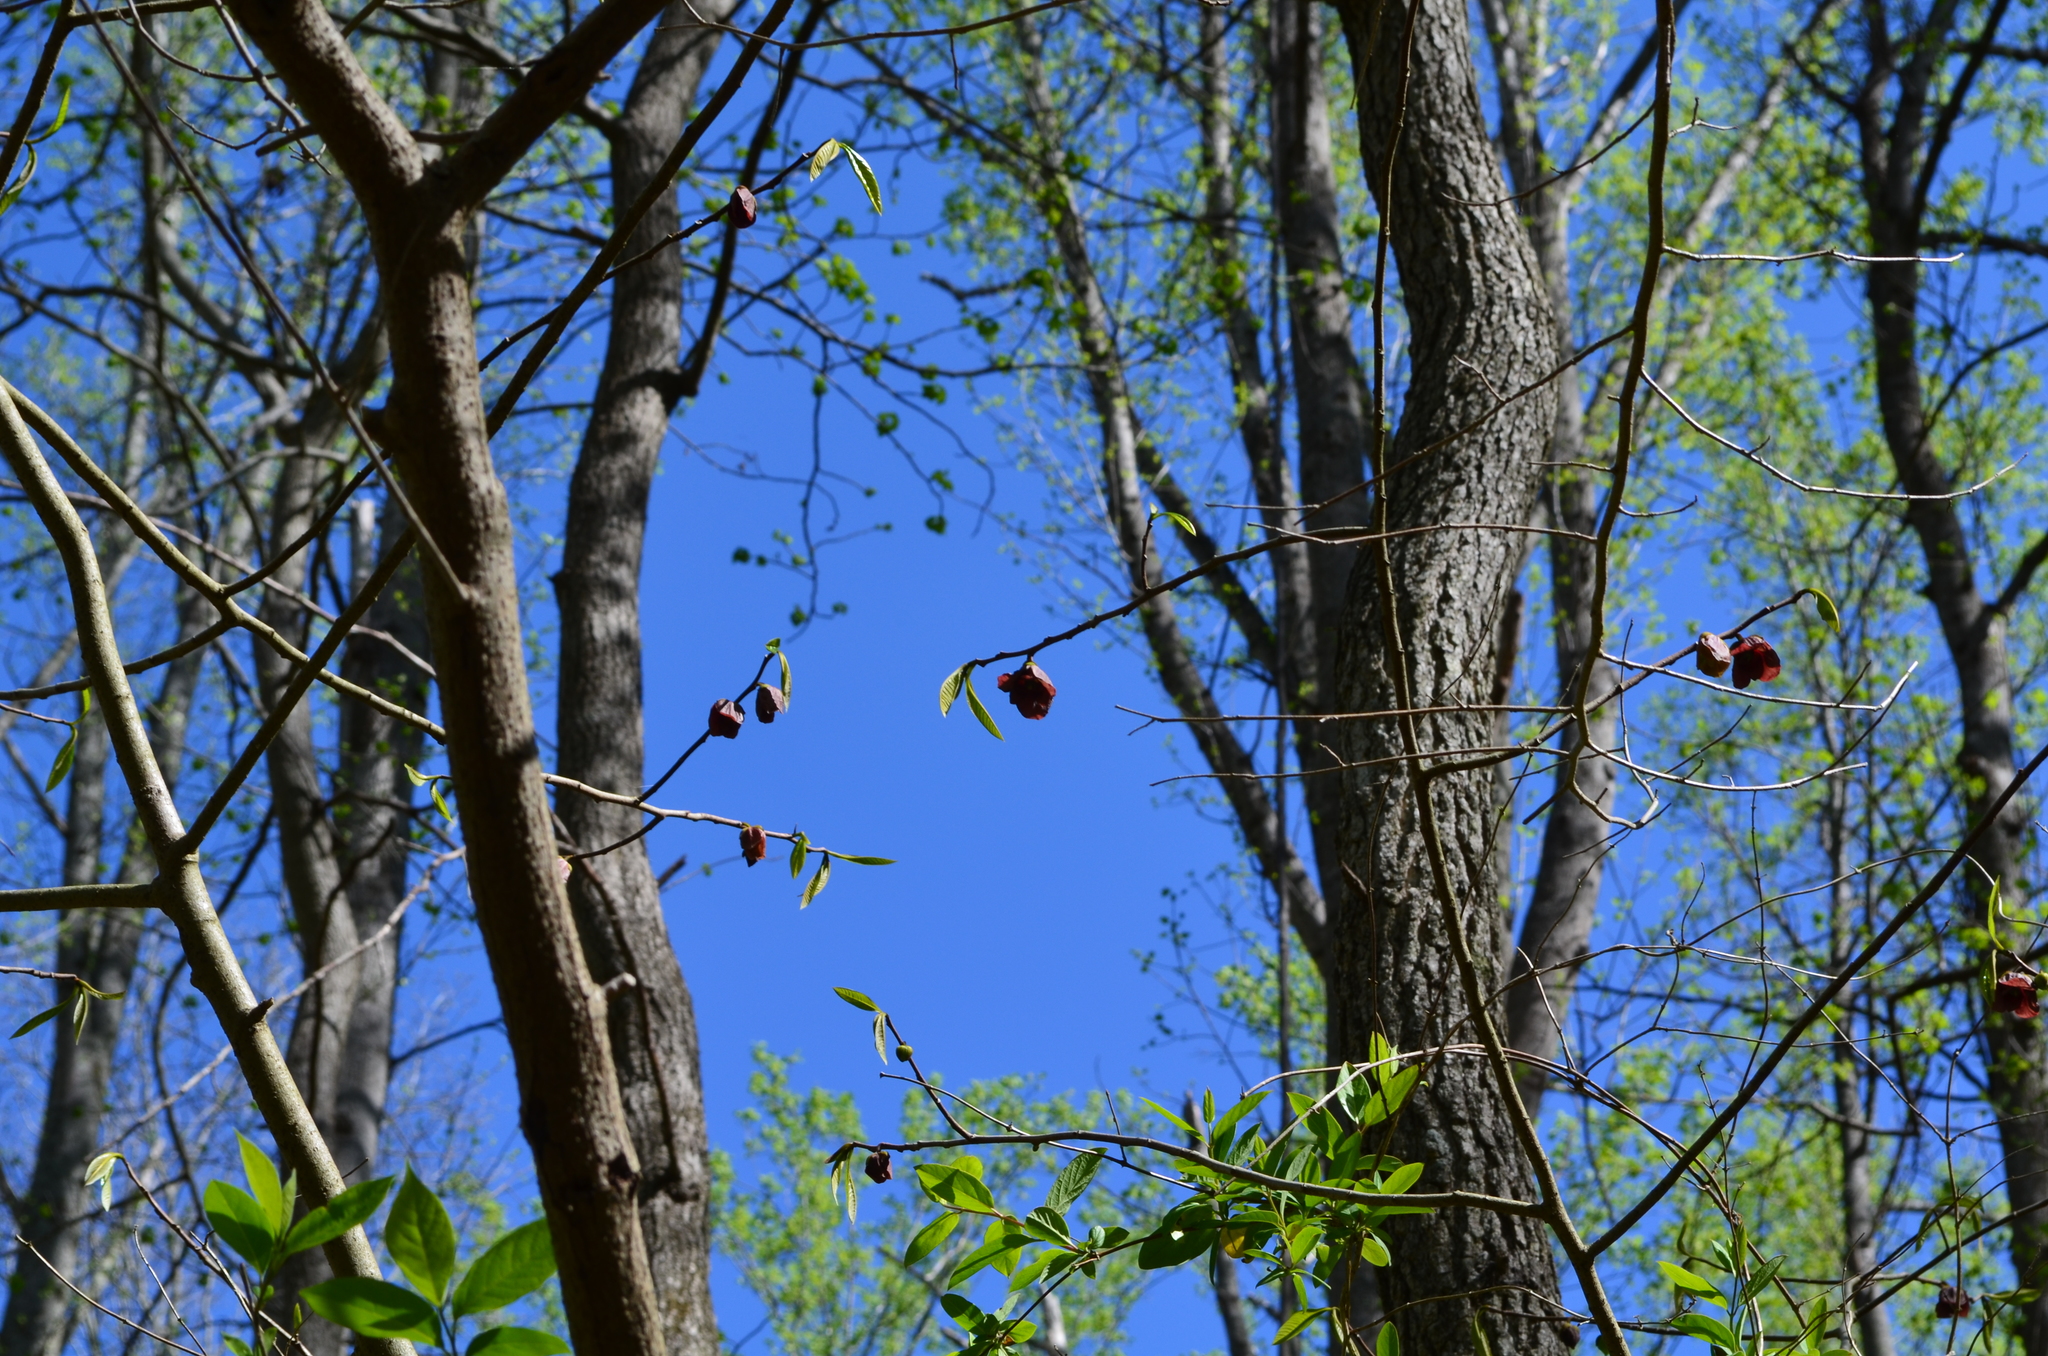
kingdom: Plantae
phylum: Tracheophyta
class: Magnoliopsida
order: Magnoliales
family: Annonaceae
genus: Asimina
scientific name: Asimina triloba
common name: Dog-banana
